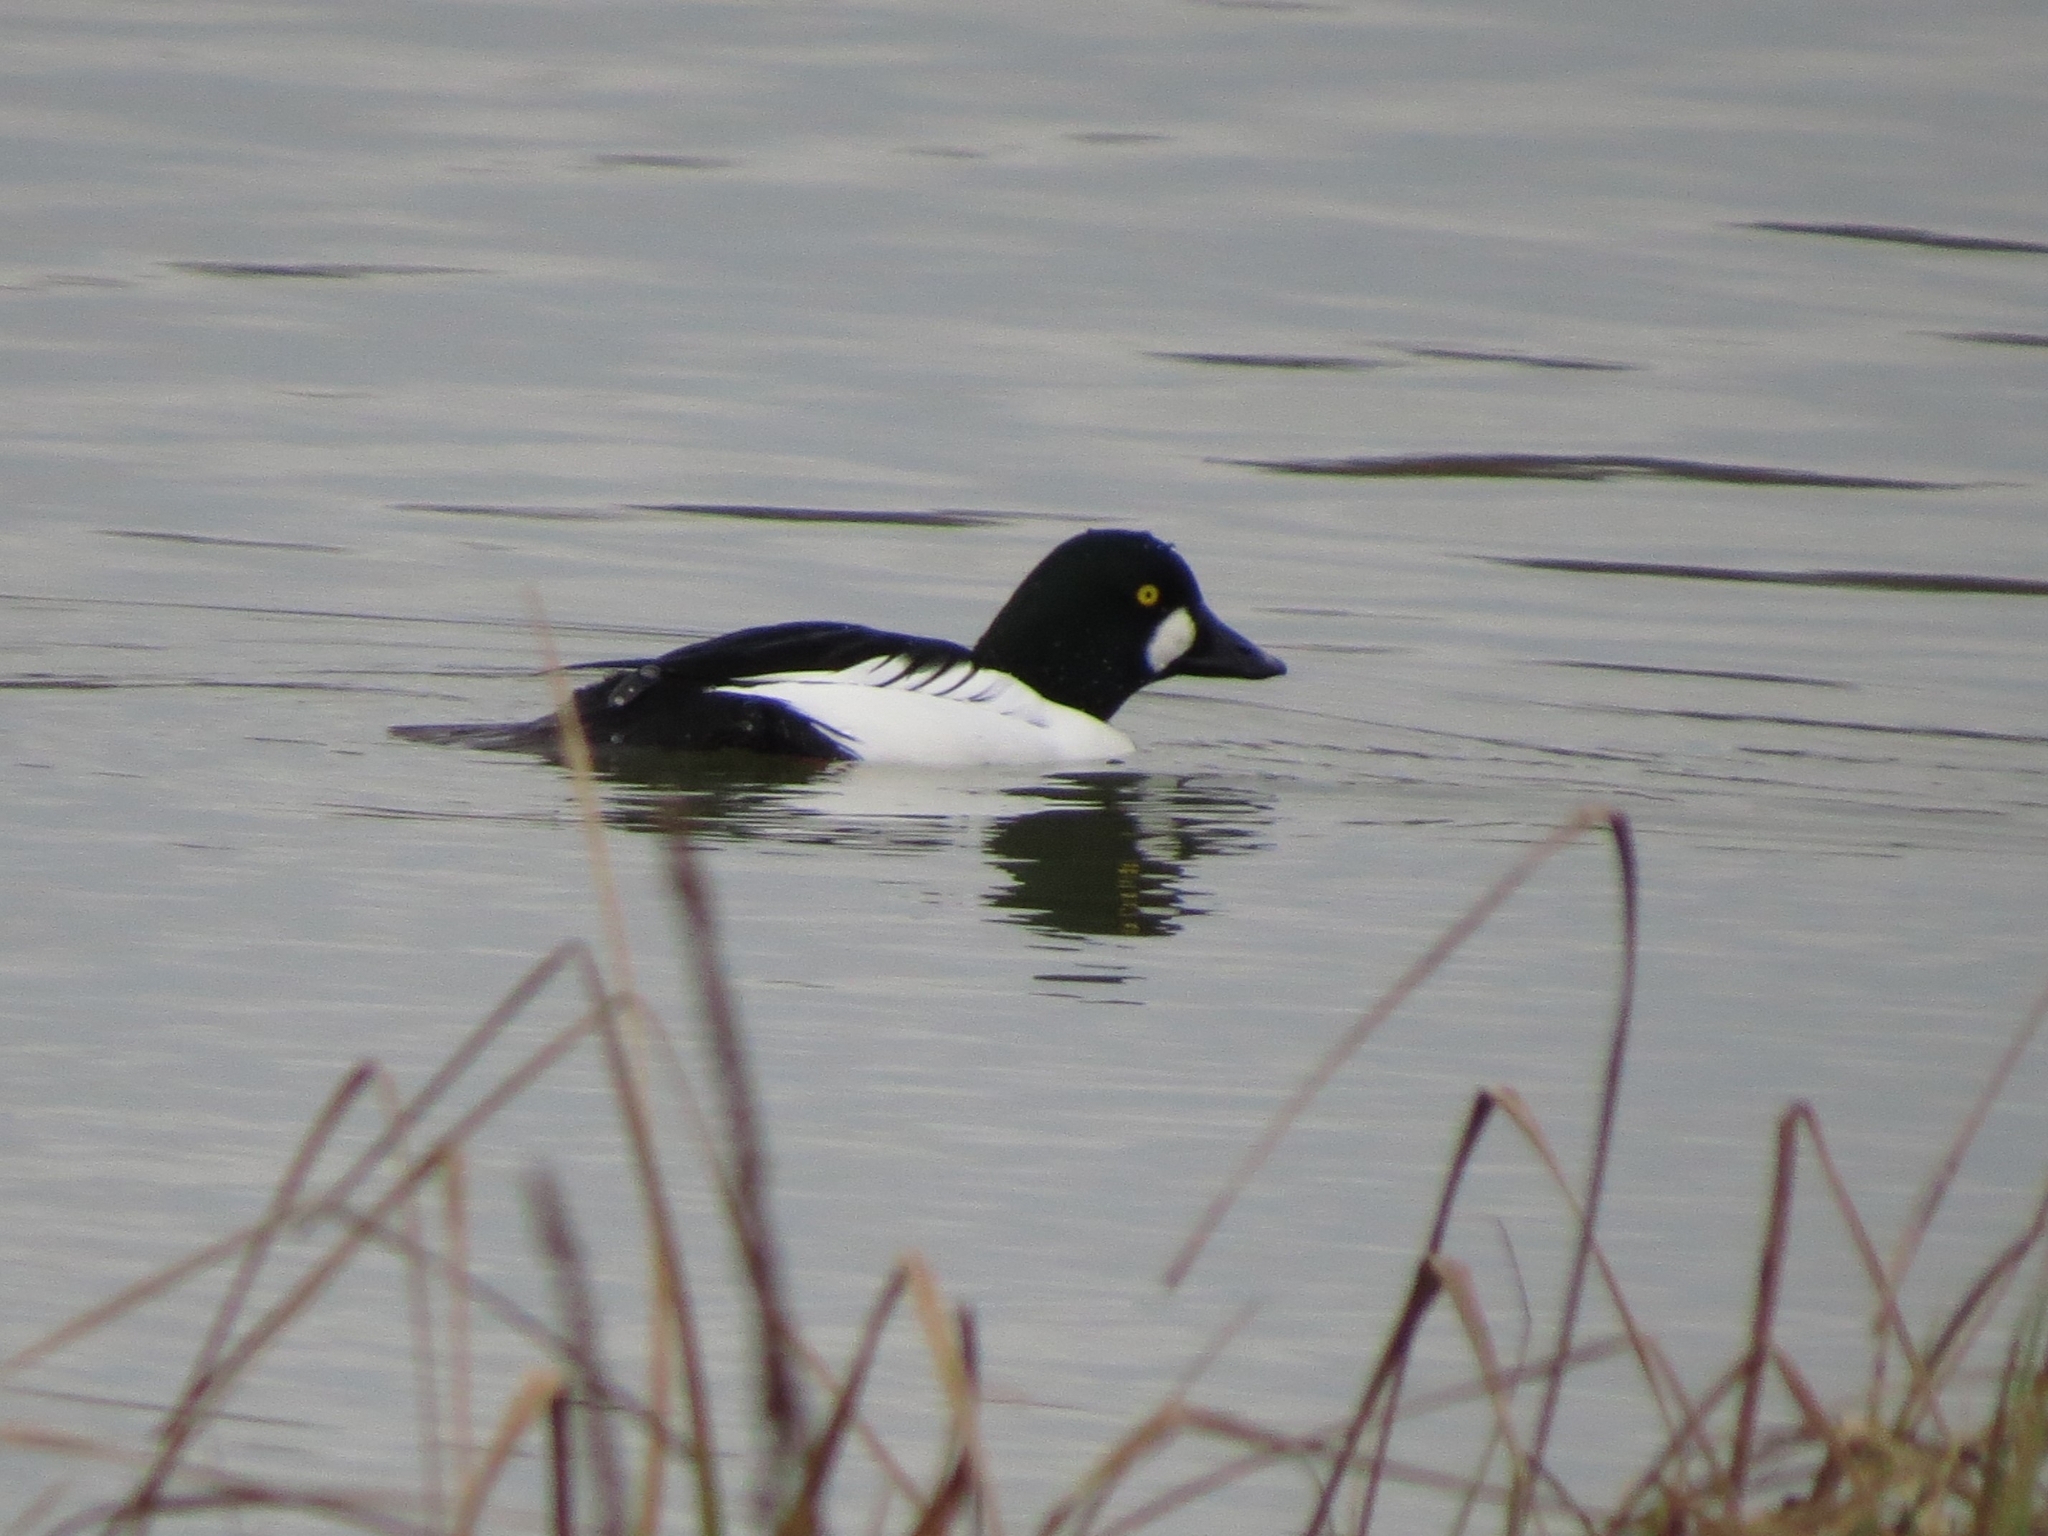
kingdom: Animalia
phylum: Chordata
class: Aves
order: Anseriformes
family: Anatidae
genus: Bucephala
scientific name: Bucephala clangula
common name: Common goldeneye
